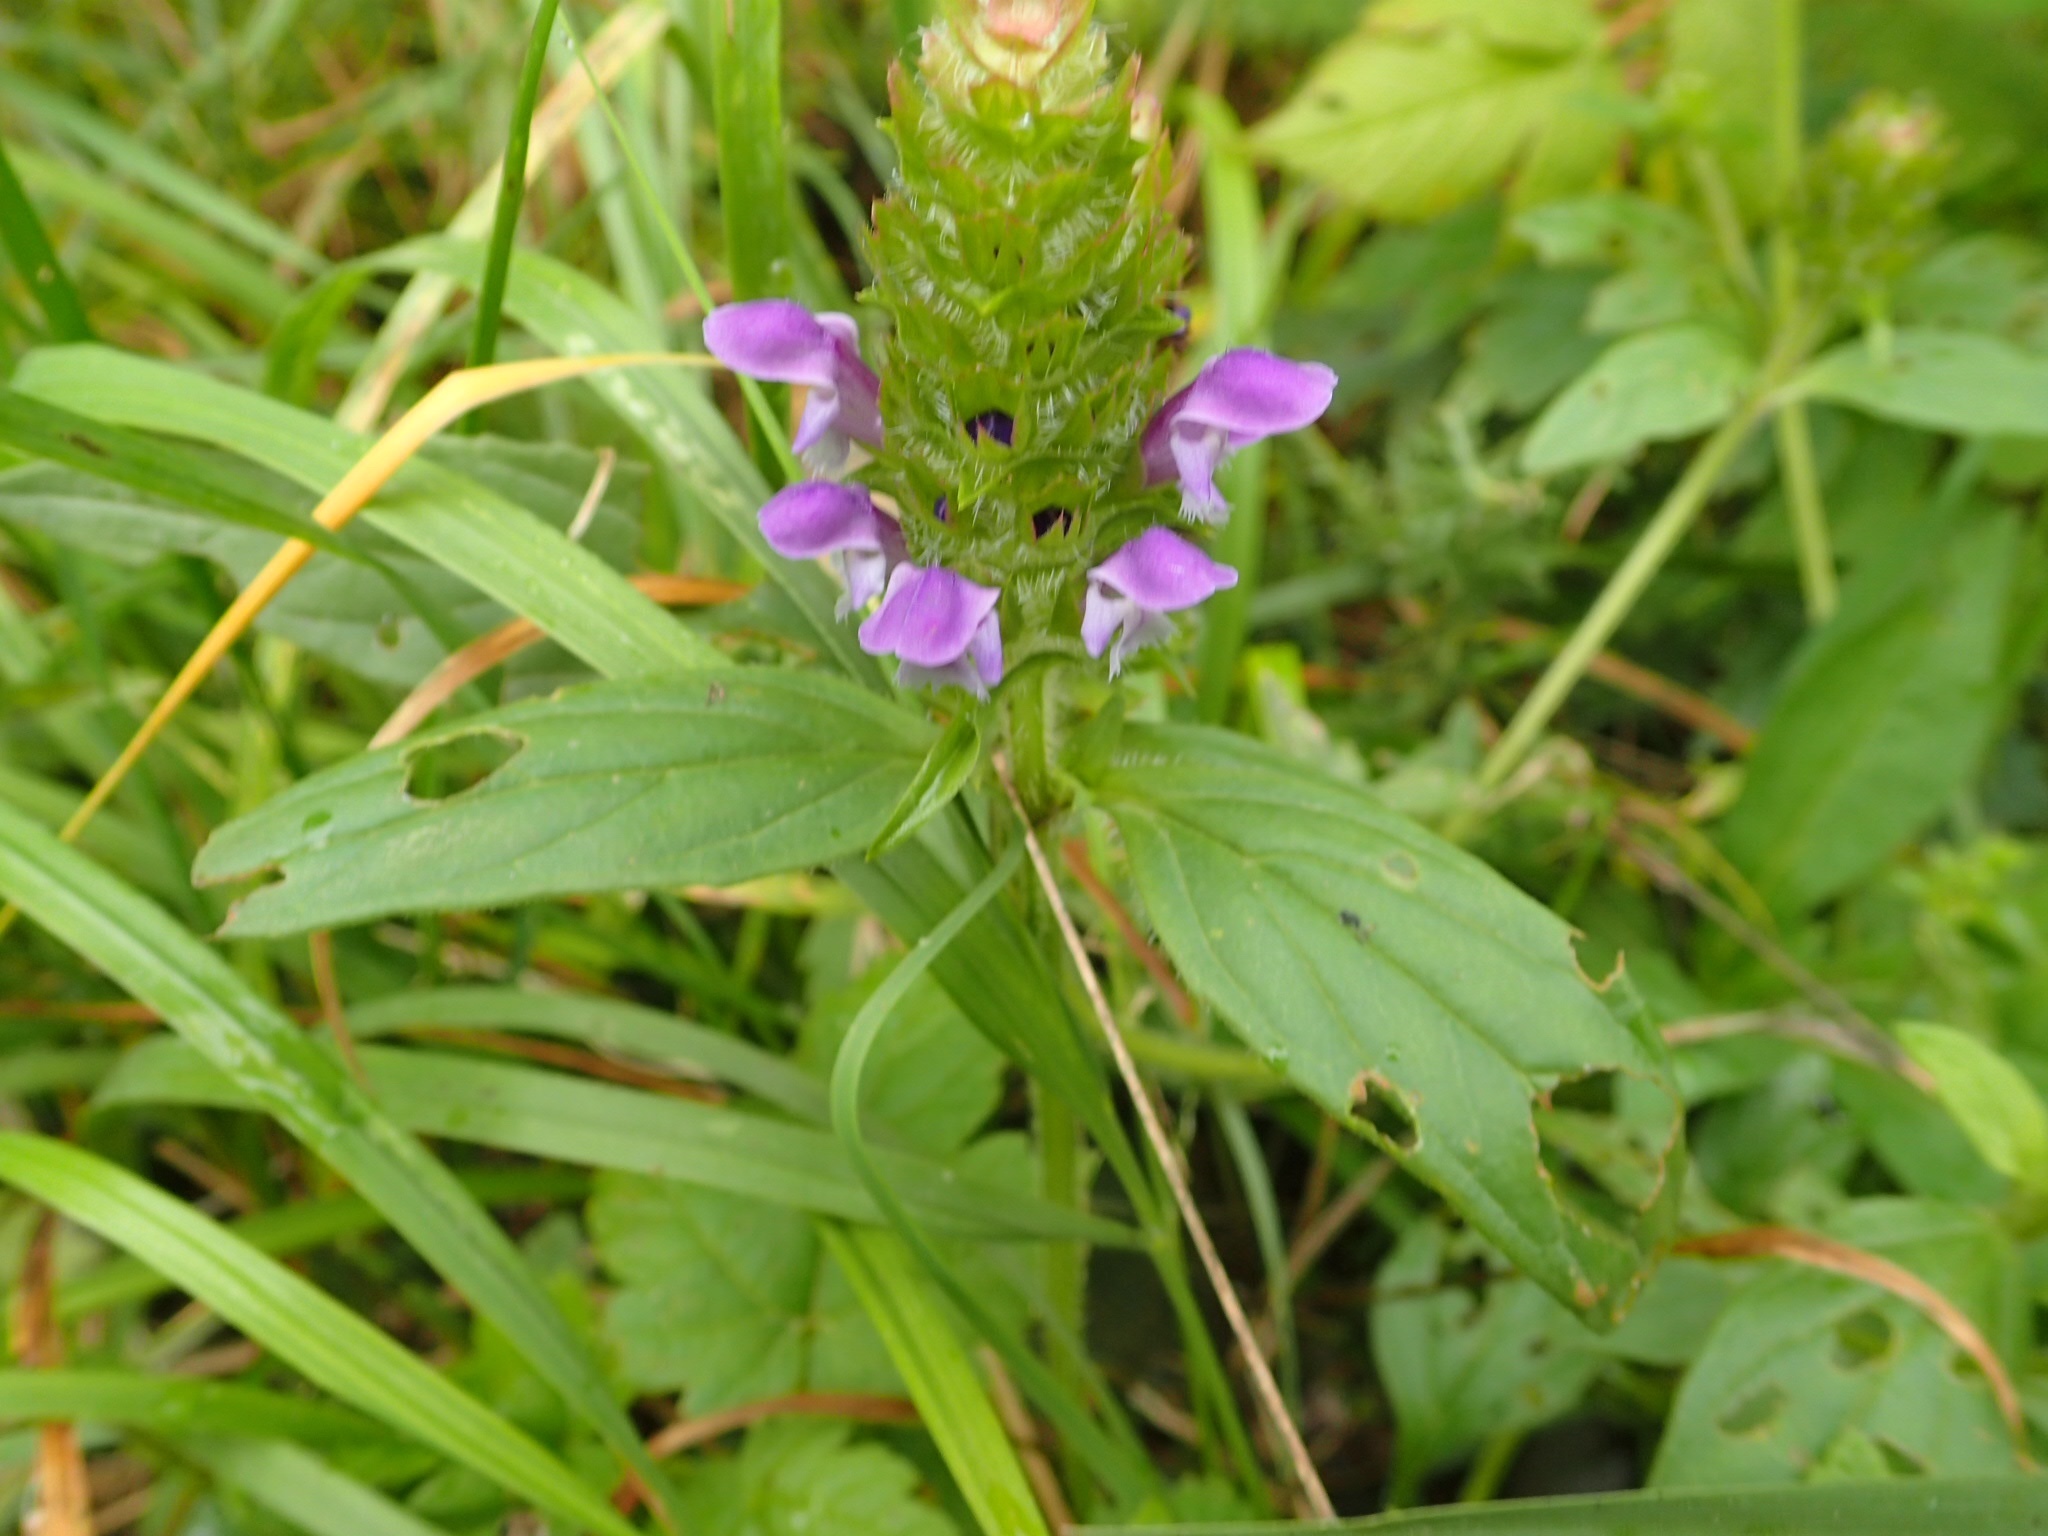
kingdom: Plantae
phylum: Tracheophyta
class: Magnoliopsida
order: Lamiales
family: Lamiaceae
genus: Prunella
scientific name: Prunella vulgaris
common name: Heal-all
